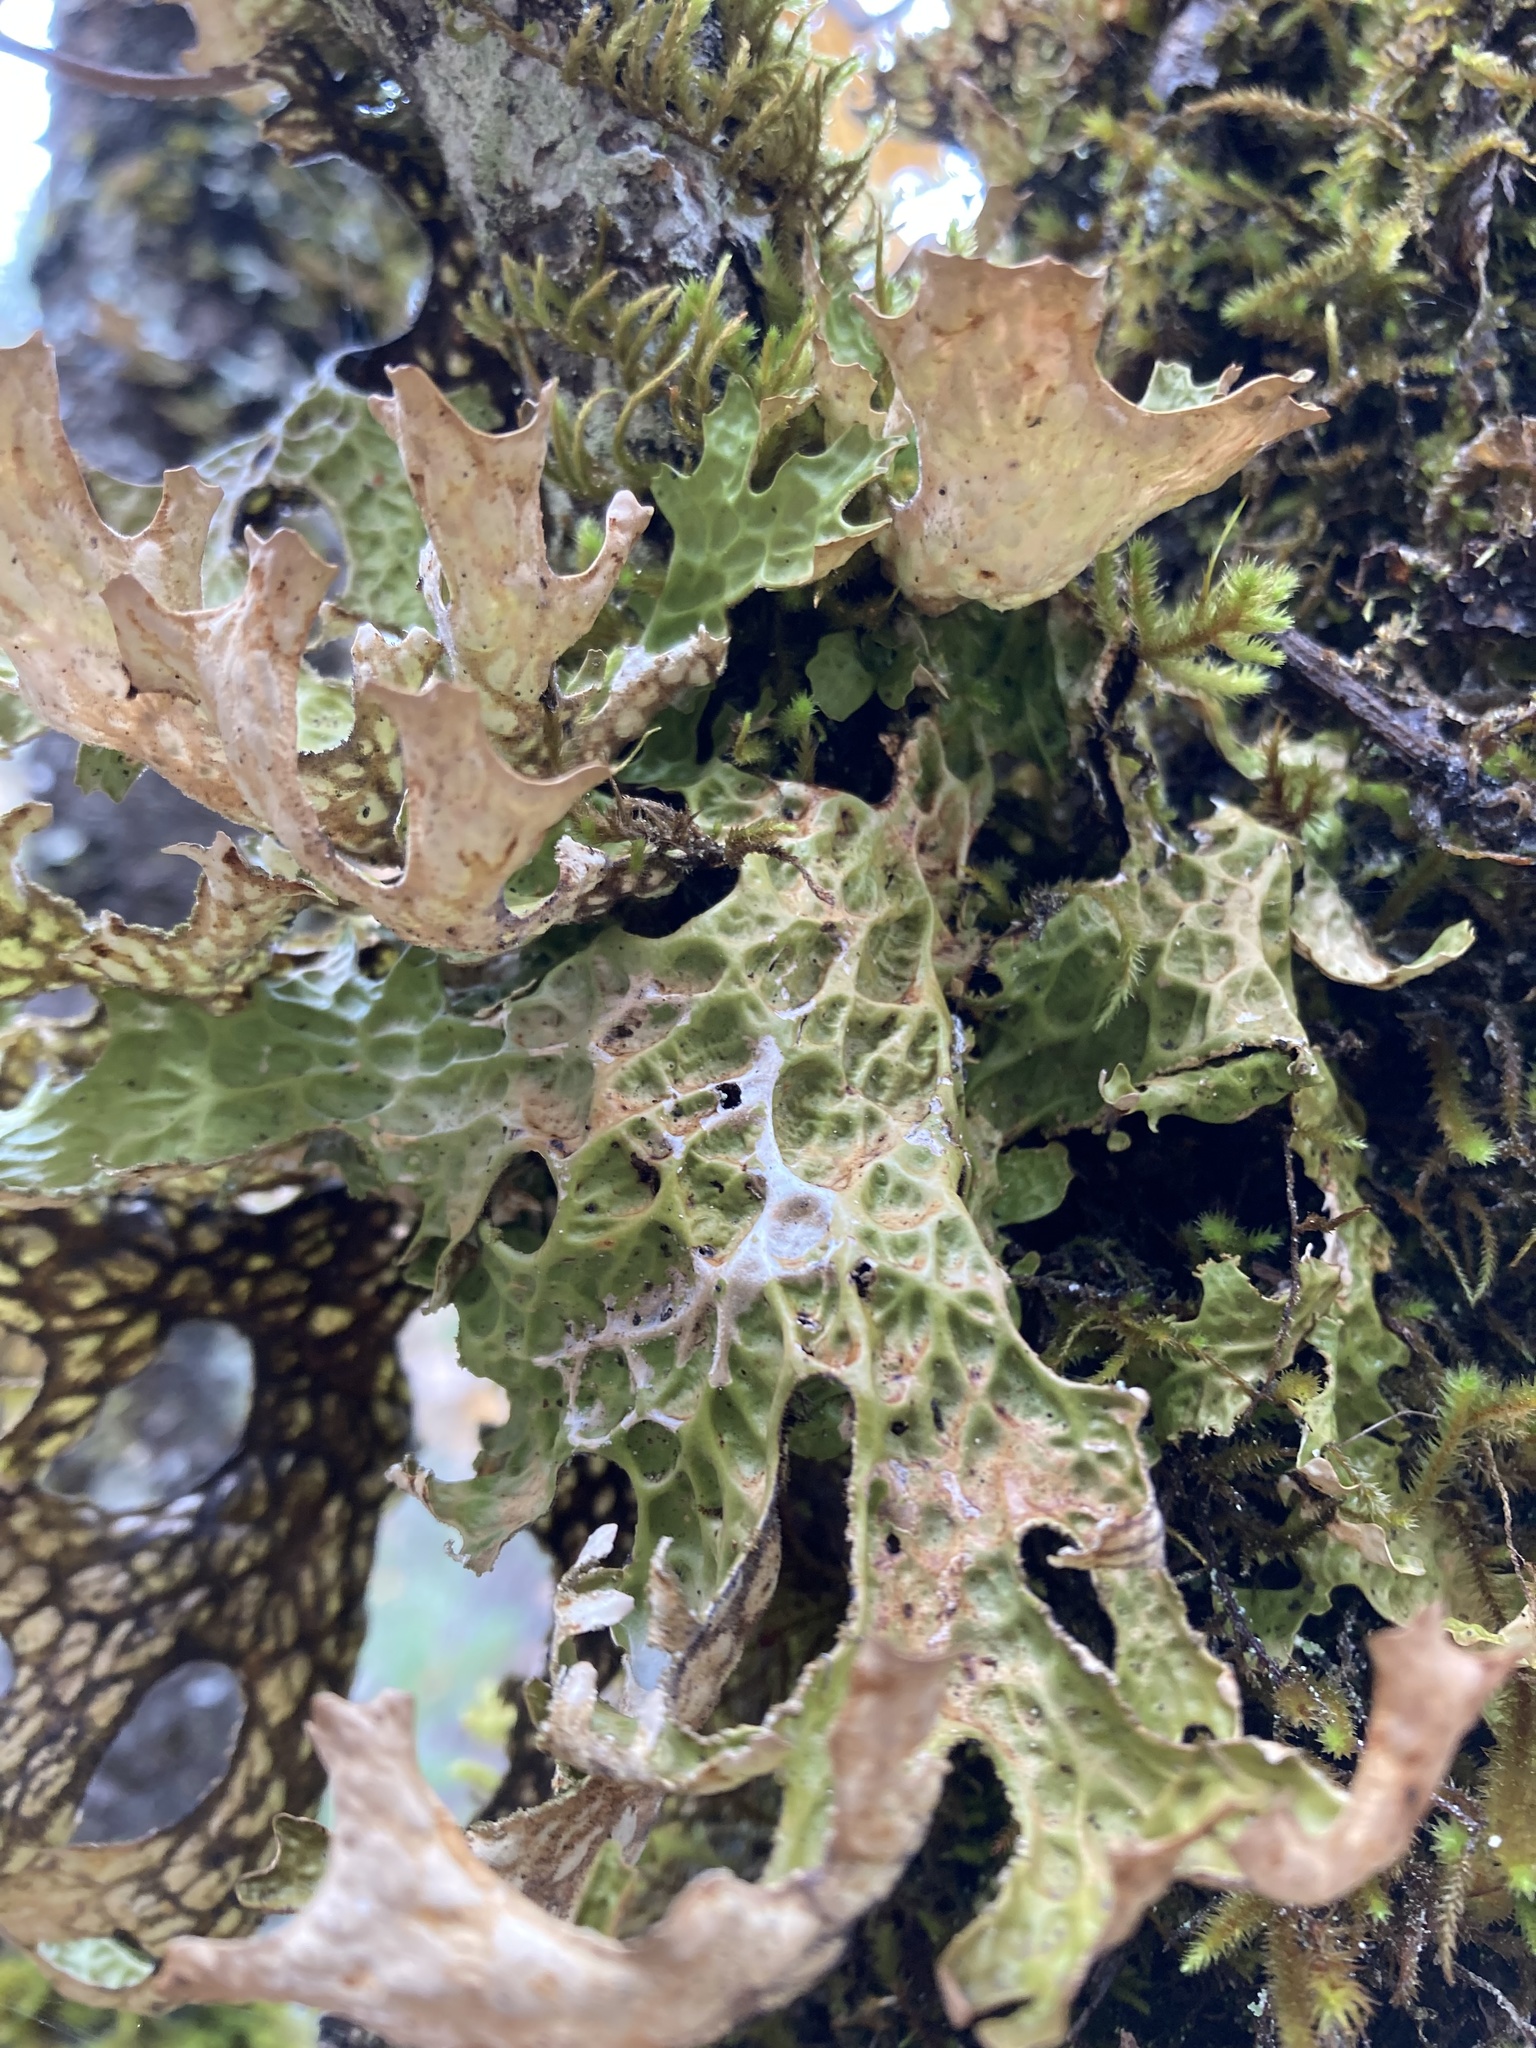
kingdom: Fungi
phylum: Ascomycota
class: Lecanoromycetes
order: Peltigerales
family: Lobariaceae
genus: Lobaria
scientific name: Lobaria pulmonaria
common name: Lungwort
